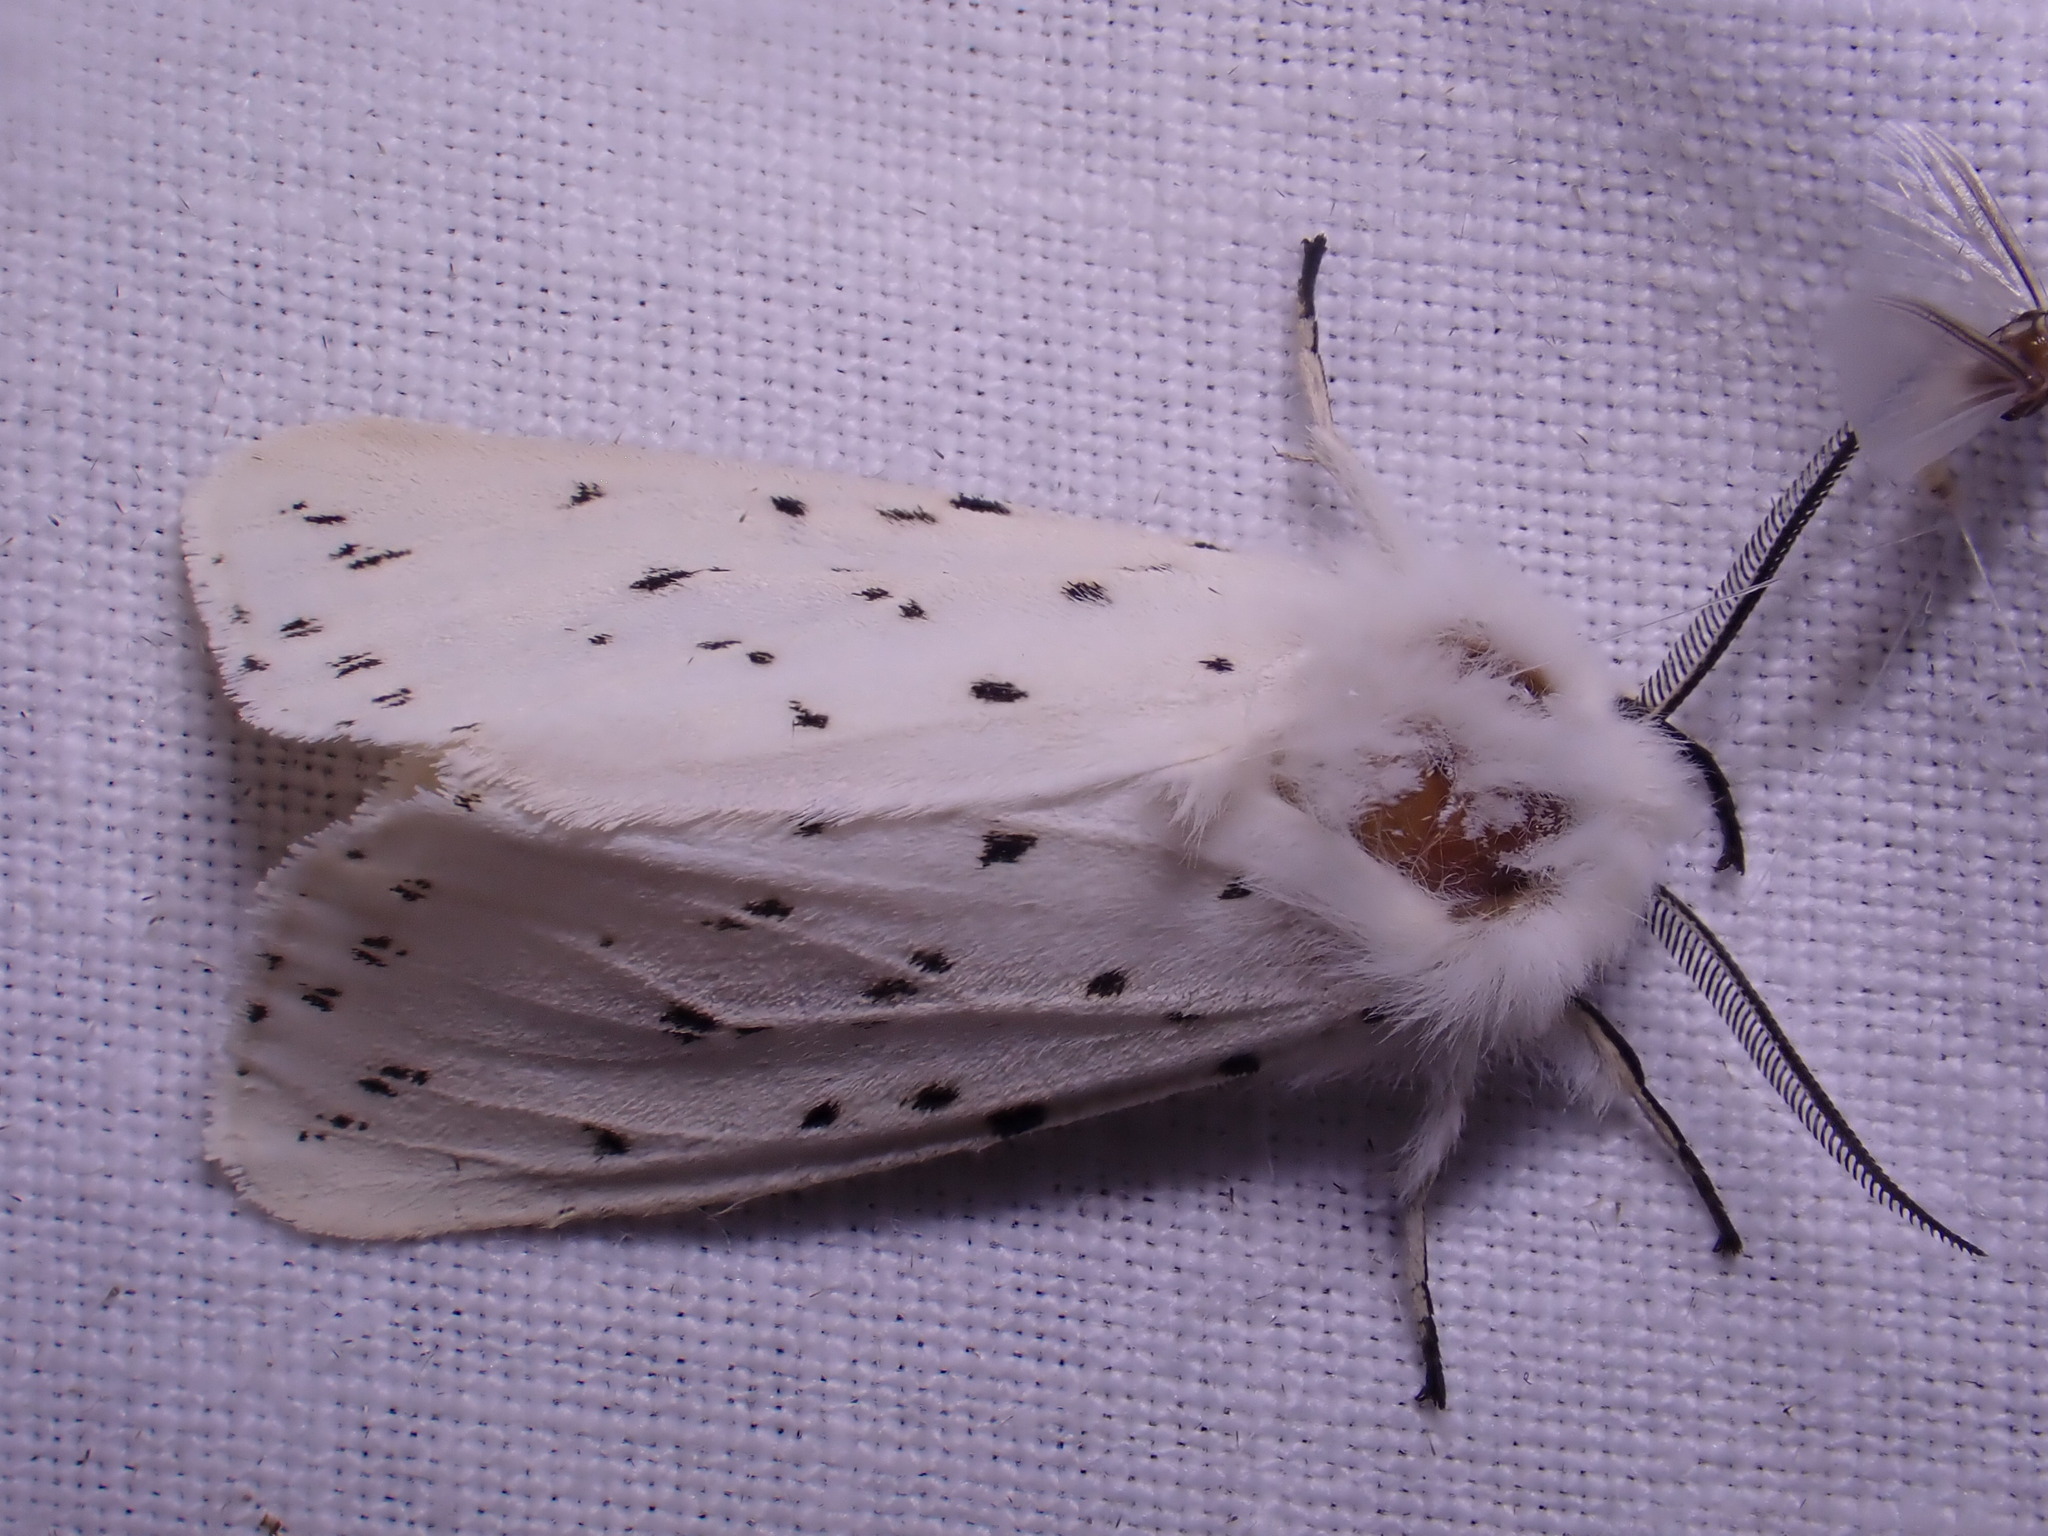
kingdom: Animalia
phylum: Arthropoda
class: Insecta
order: Lepidoptera
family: Erebidae
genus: Spilosoma
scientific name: Spilosoma lubricipeda
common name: White ermine
